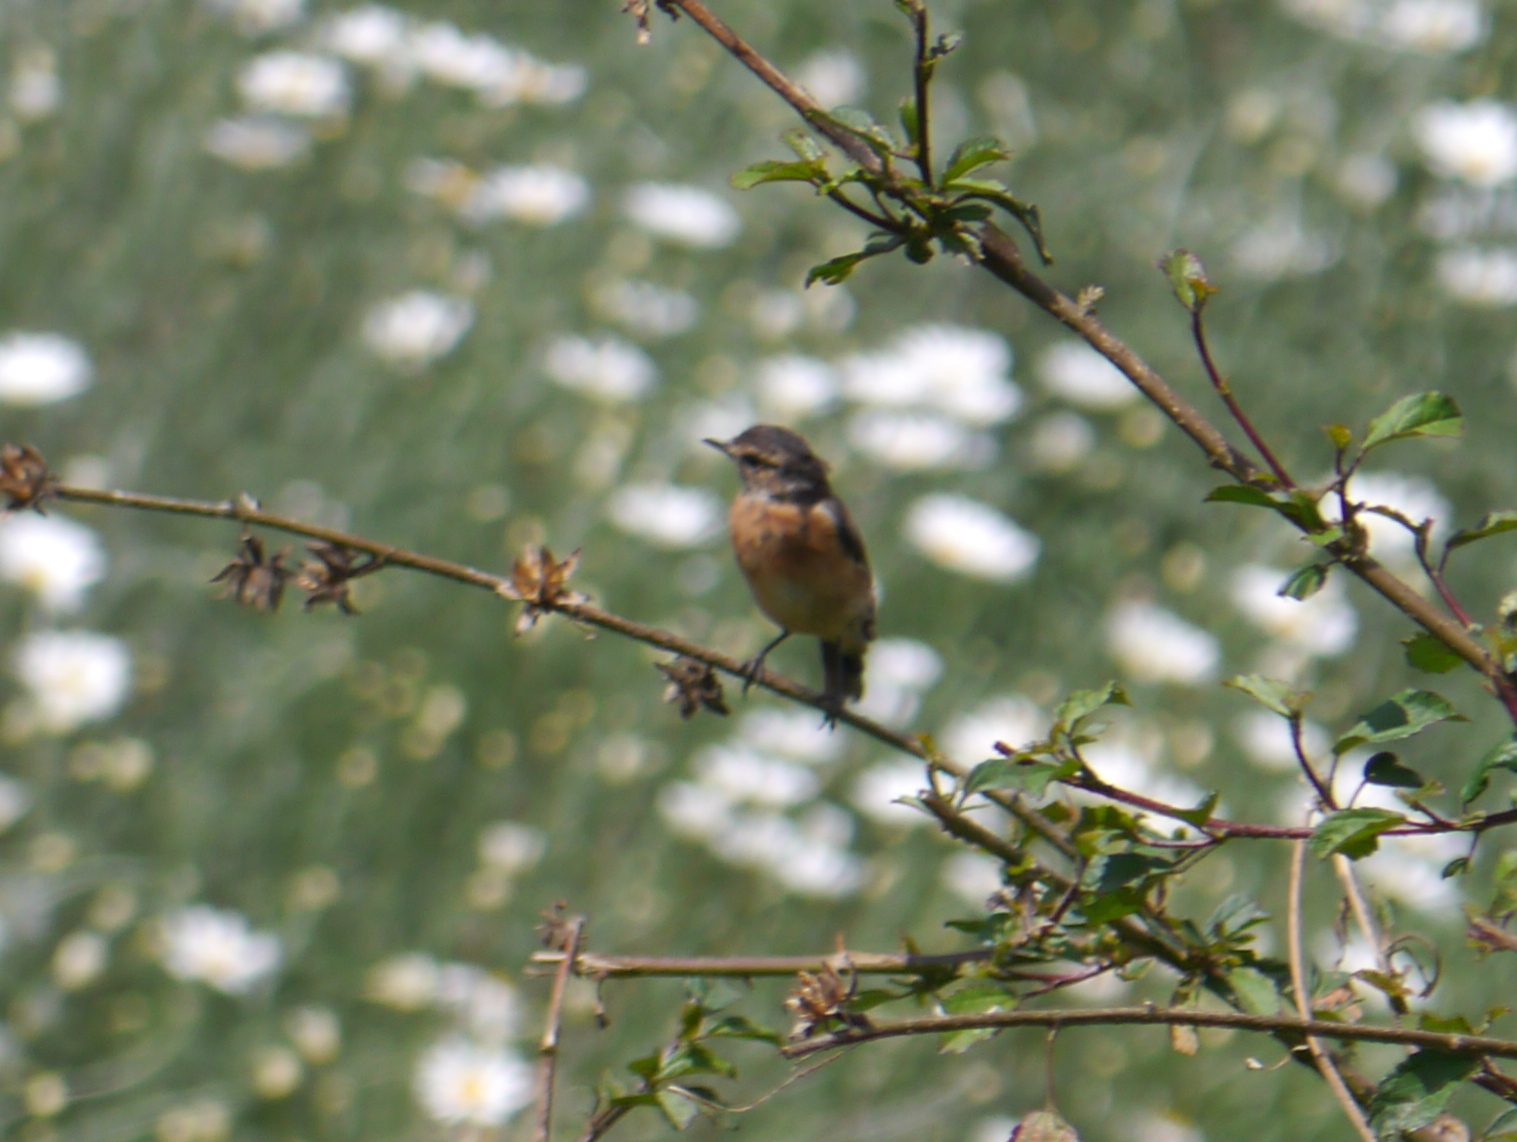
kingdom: Animalia
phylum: Chordata
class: Aves
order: Passeriformes
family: Muscicapidae
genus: Saxicola
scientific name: Saxicola torquatus
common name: African stonechat
